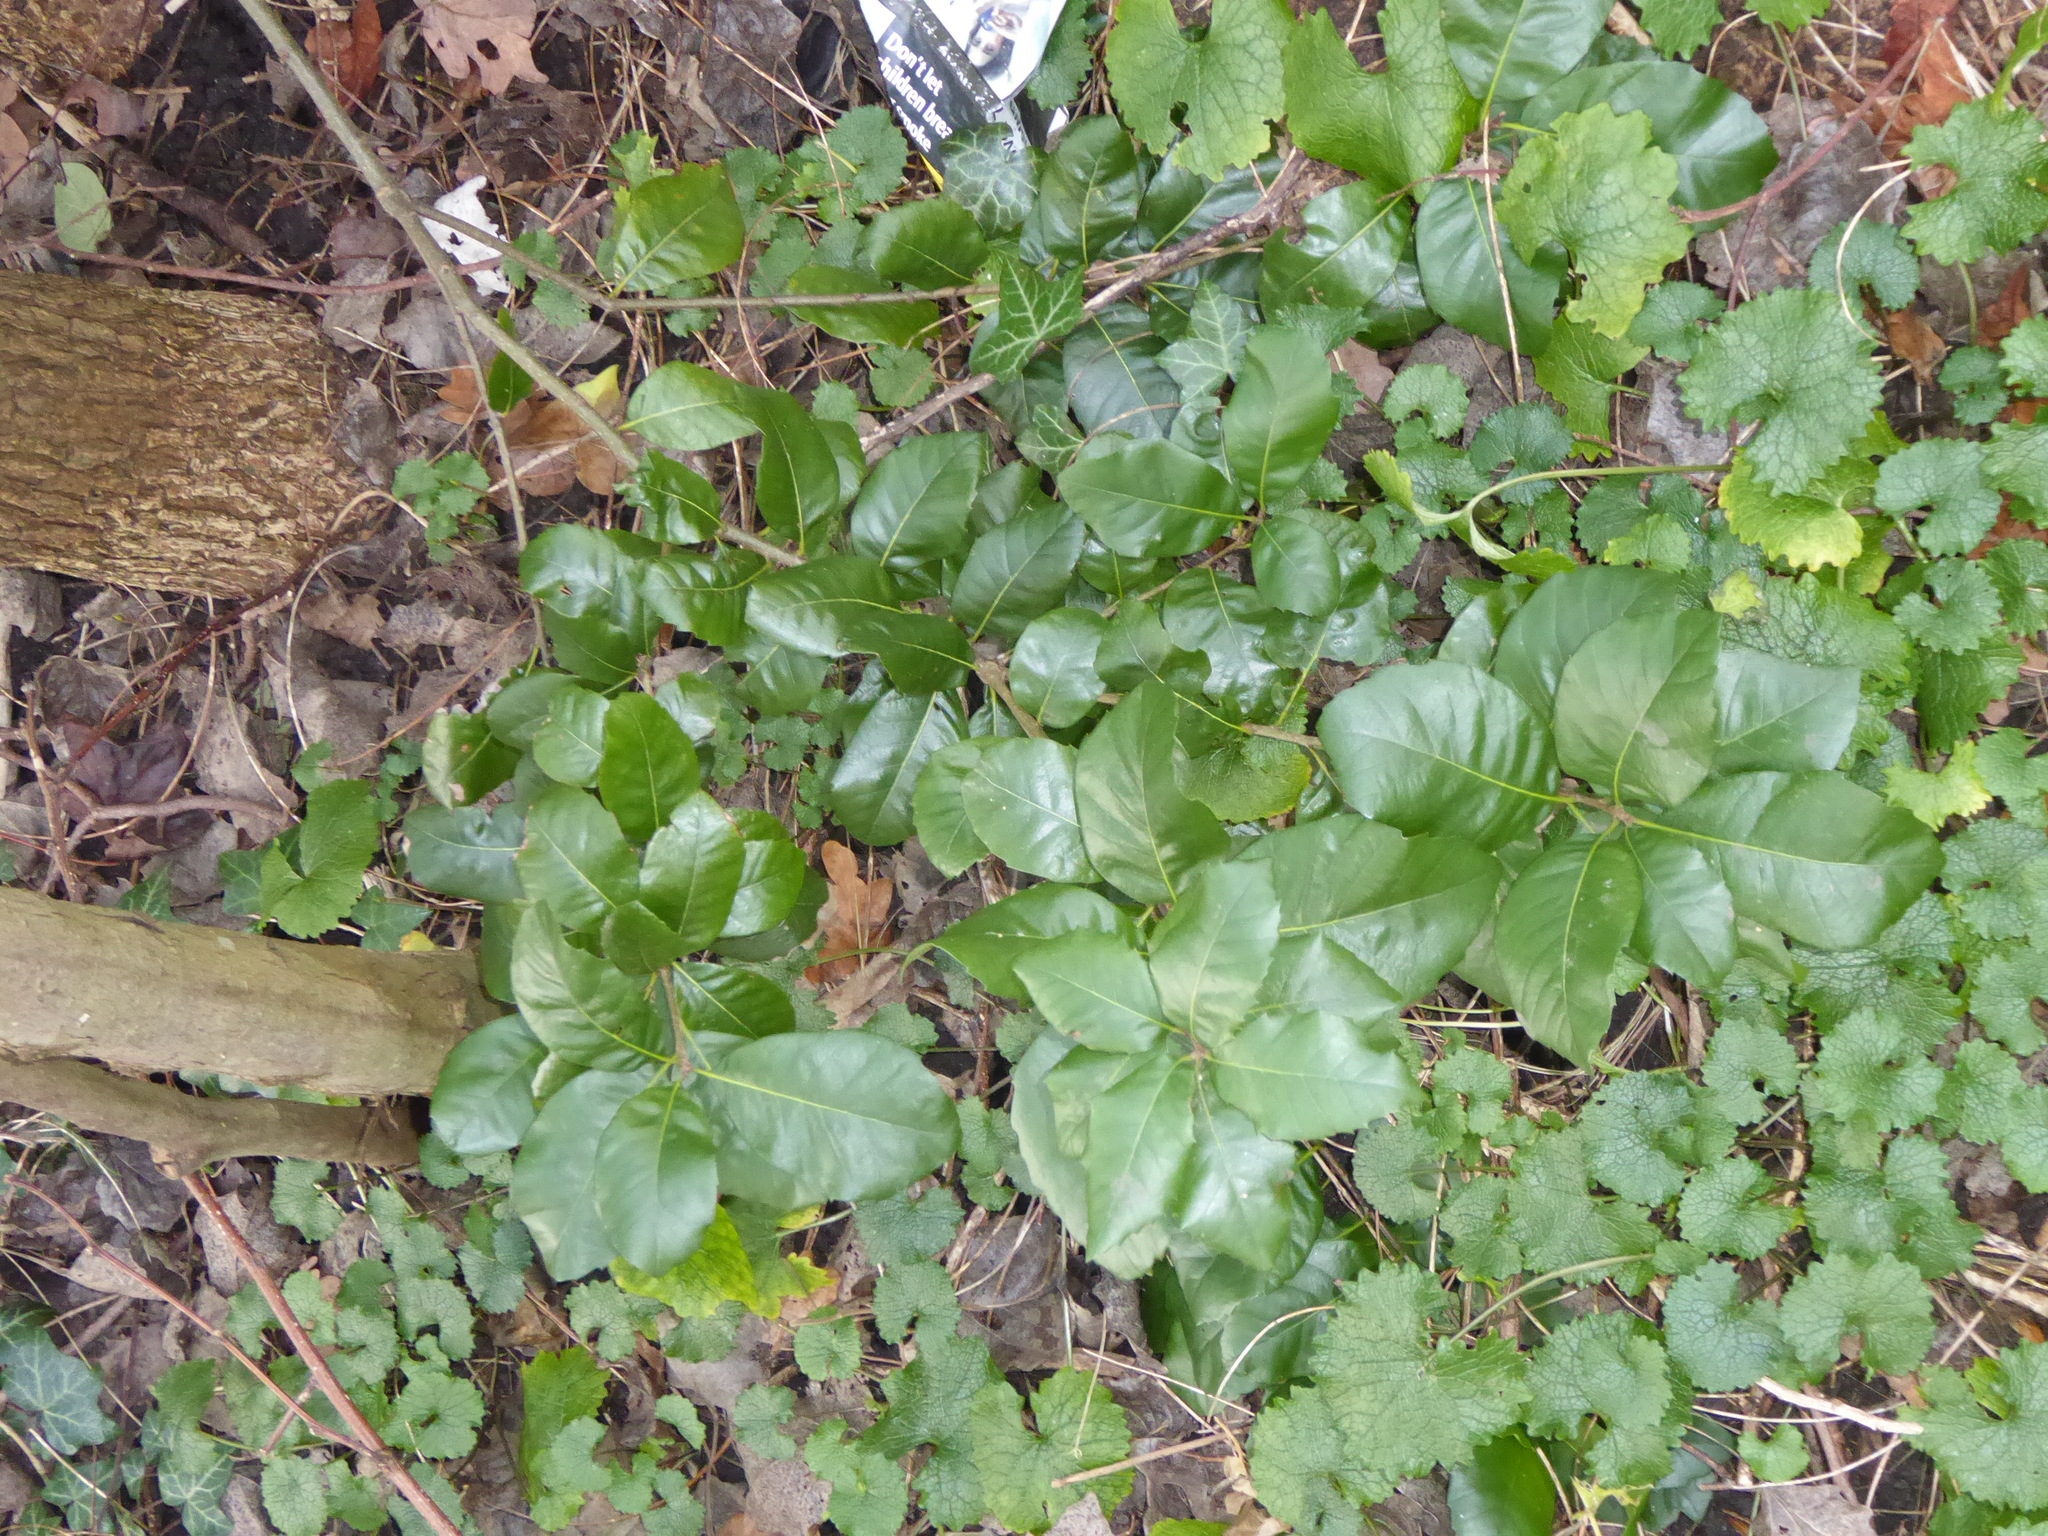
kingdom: Plantae
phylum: Tracheophyta
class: Magnoliopsida
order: Fagales
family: Fagaceae
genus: Quercus
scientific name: Quercus ilex
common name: Evergreen oak
